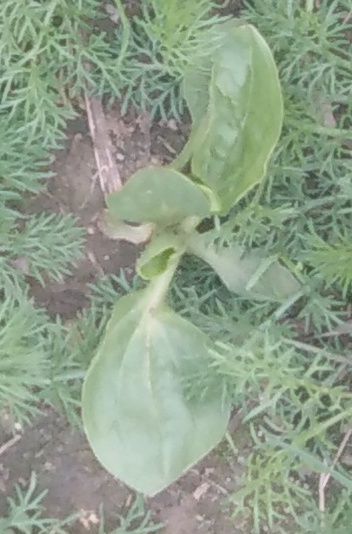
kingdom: Plantae
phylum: Tracheophyta
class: Magnoliopsida
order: Lamiales
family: Plantaginaceae
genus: Plantago
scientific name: Plantago major
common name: Common plantain
